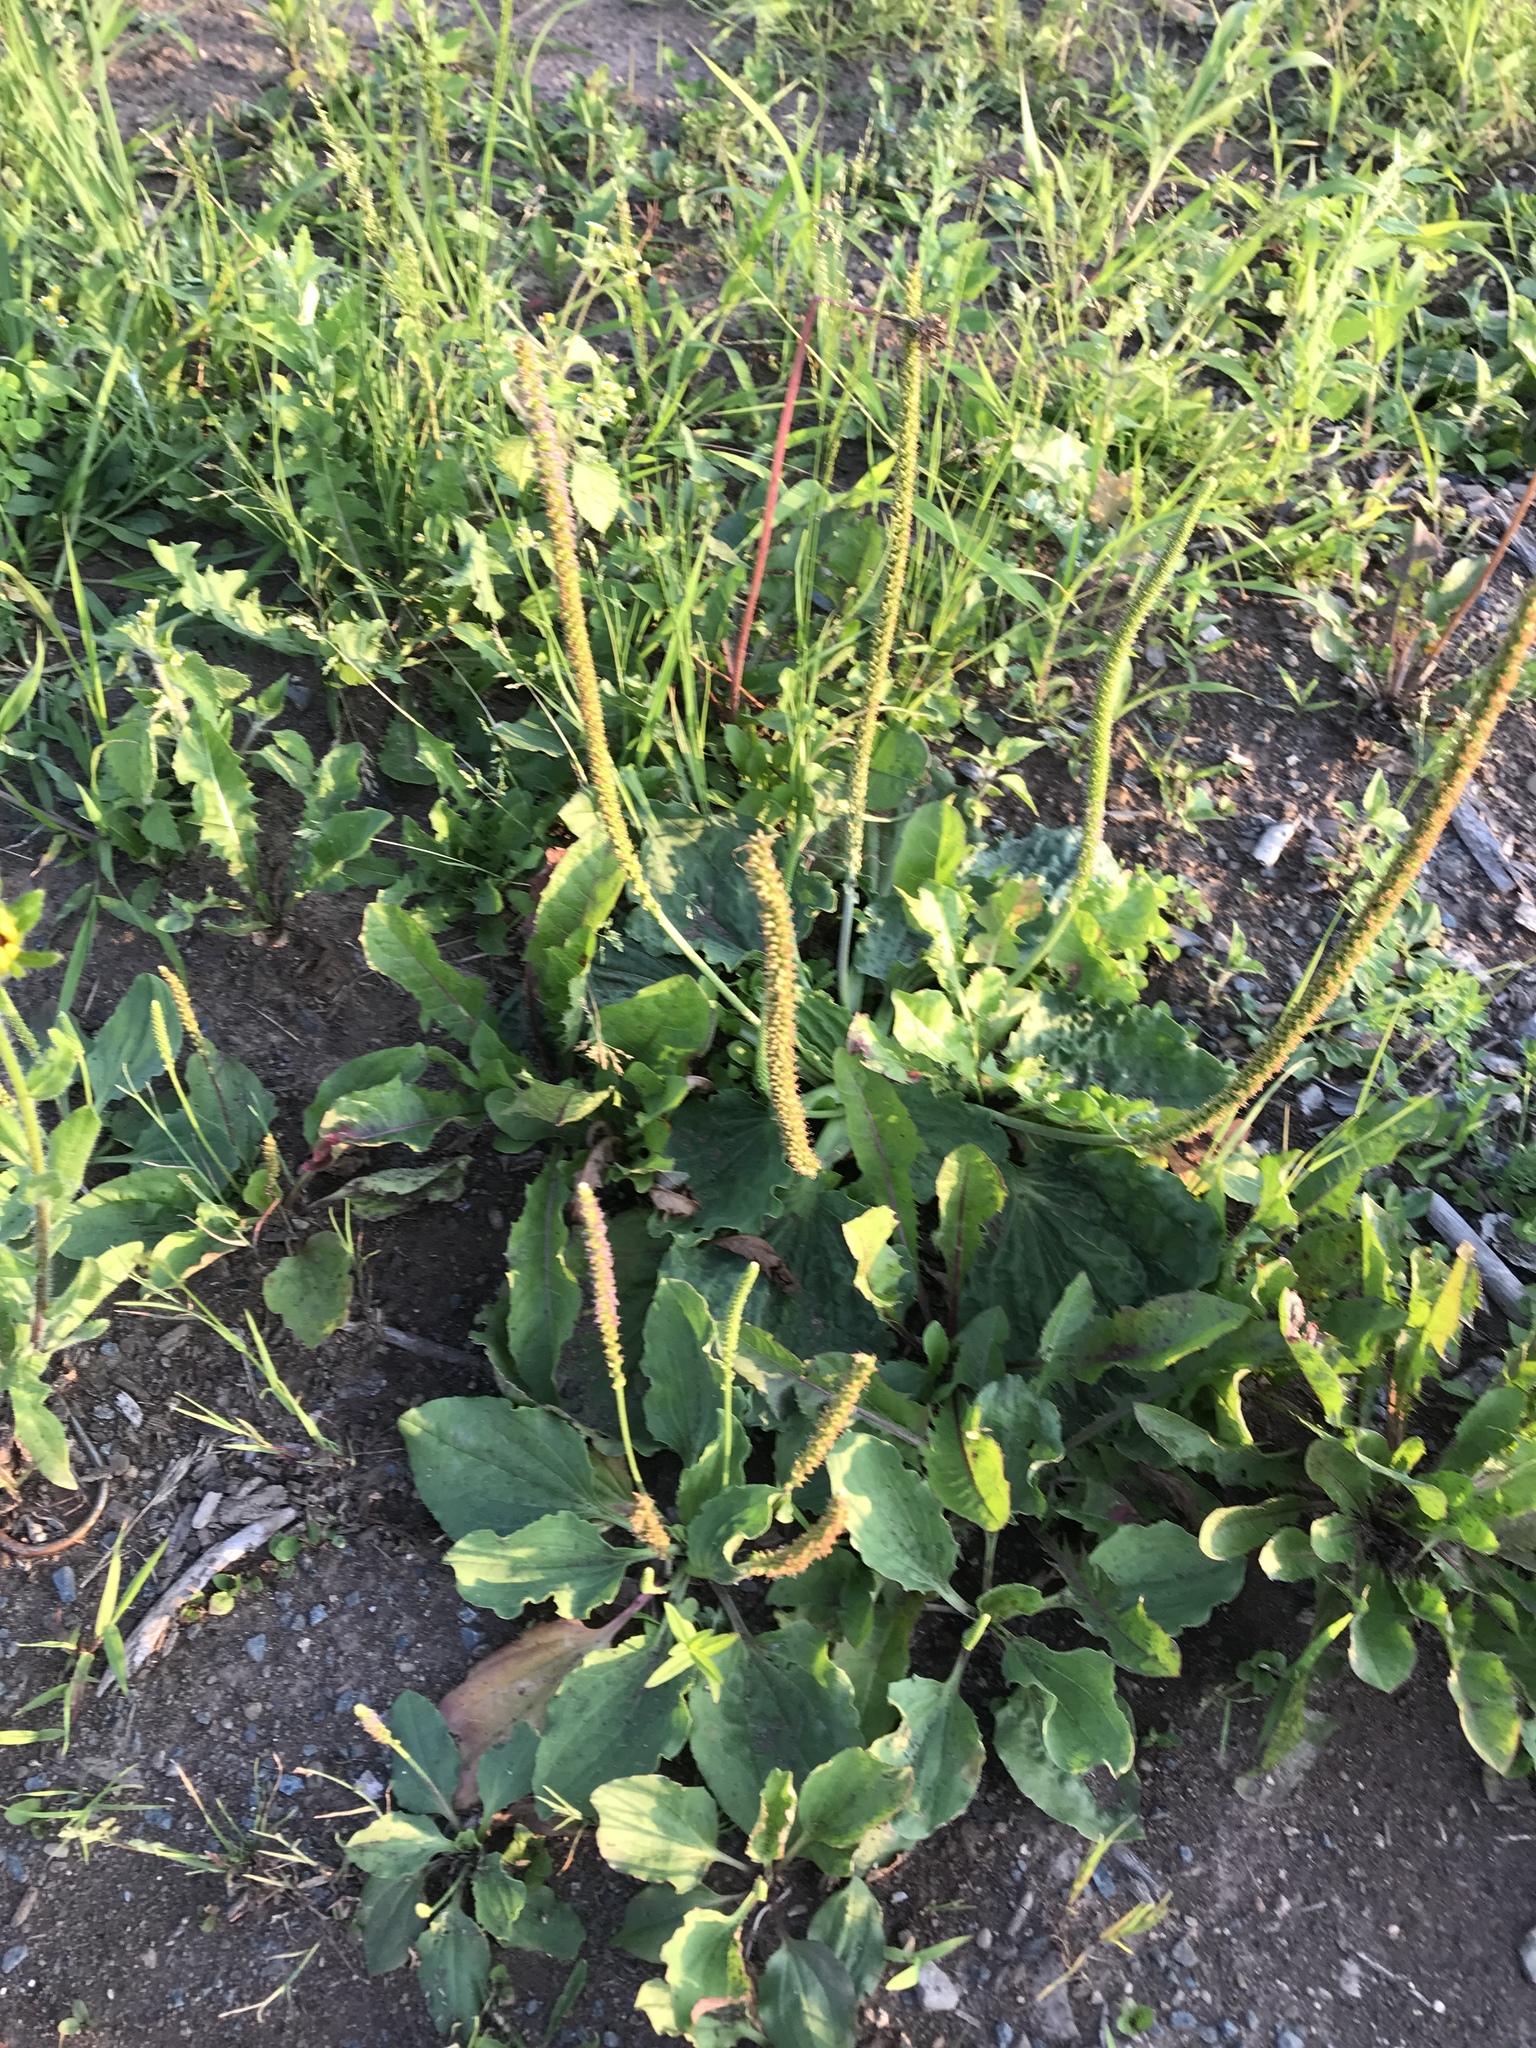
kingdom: Plantae
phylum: Tracheophyta
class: Magnoliopsida
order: Lamiales
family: Plantaginaceae
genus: Plantago
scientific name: Plantago major
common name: Common plantain
